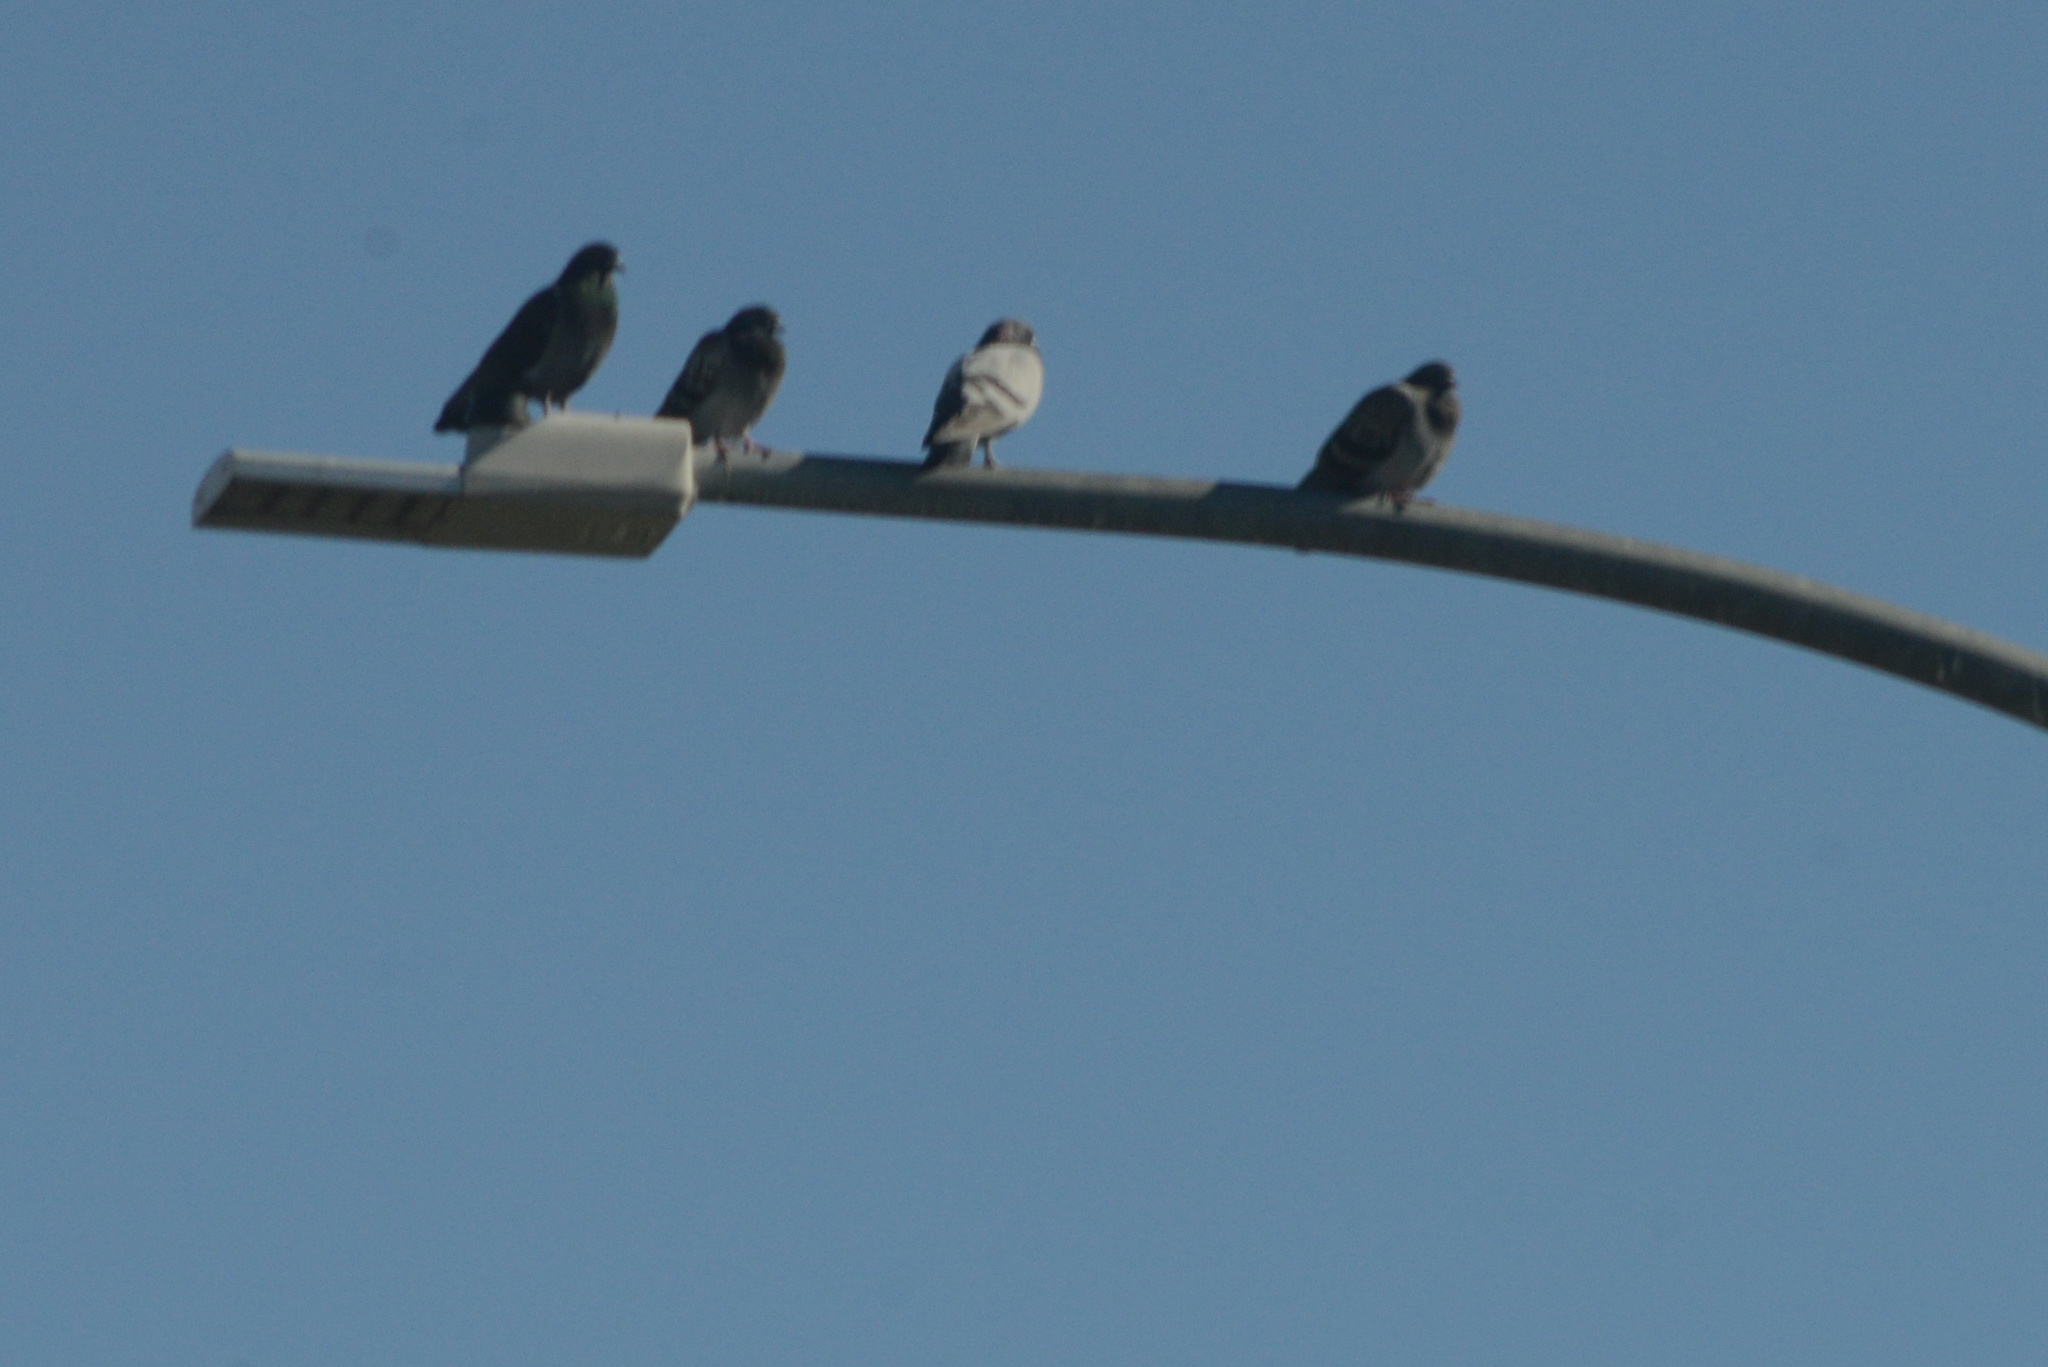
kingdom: Animalia
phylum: Chordata
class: Aves
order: Columbiformes
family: Columbidae
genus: Columba
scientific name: Columba livia
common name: Rock pigeon
